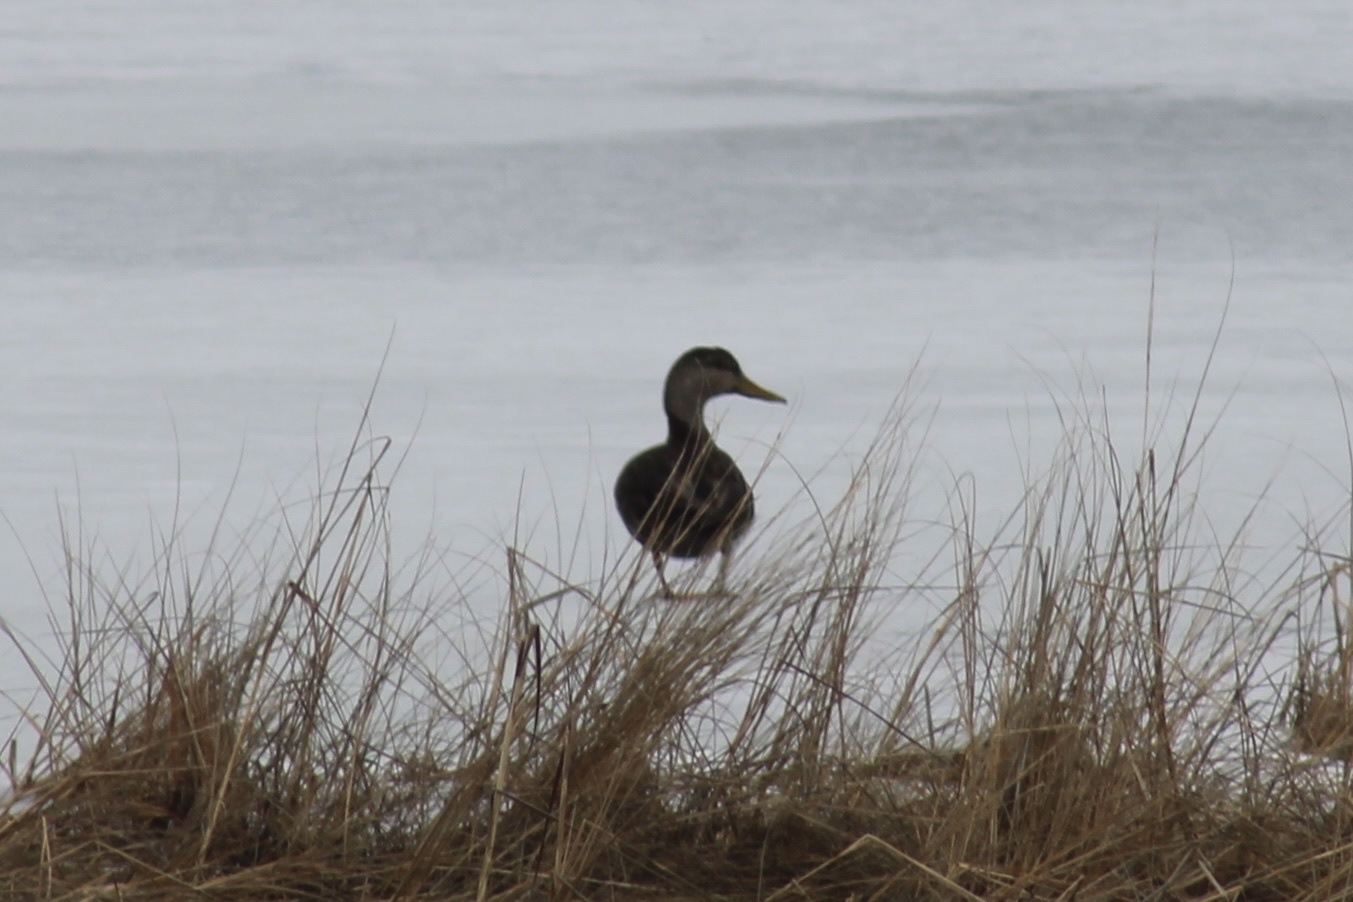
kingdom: Animalia
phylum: Chordata
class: Aves
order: Anseriformes
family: Anatidae
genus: Anas
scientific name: Anas rubripes
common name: American black duck
